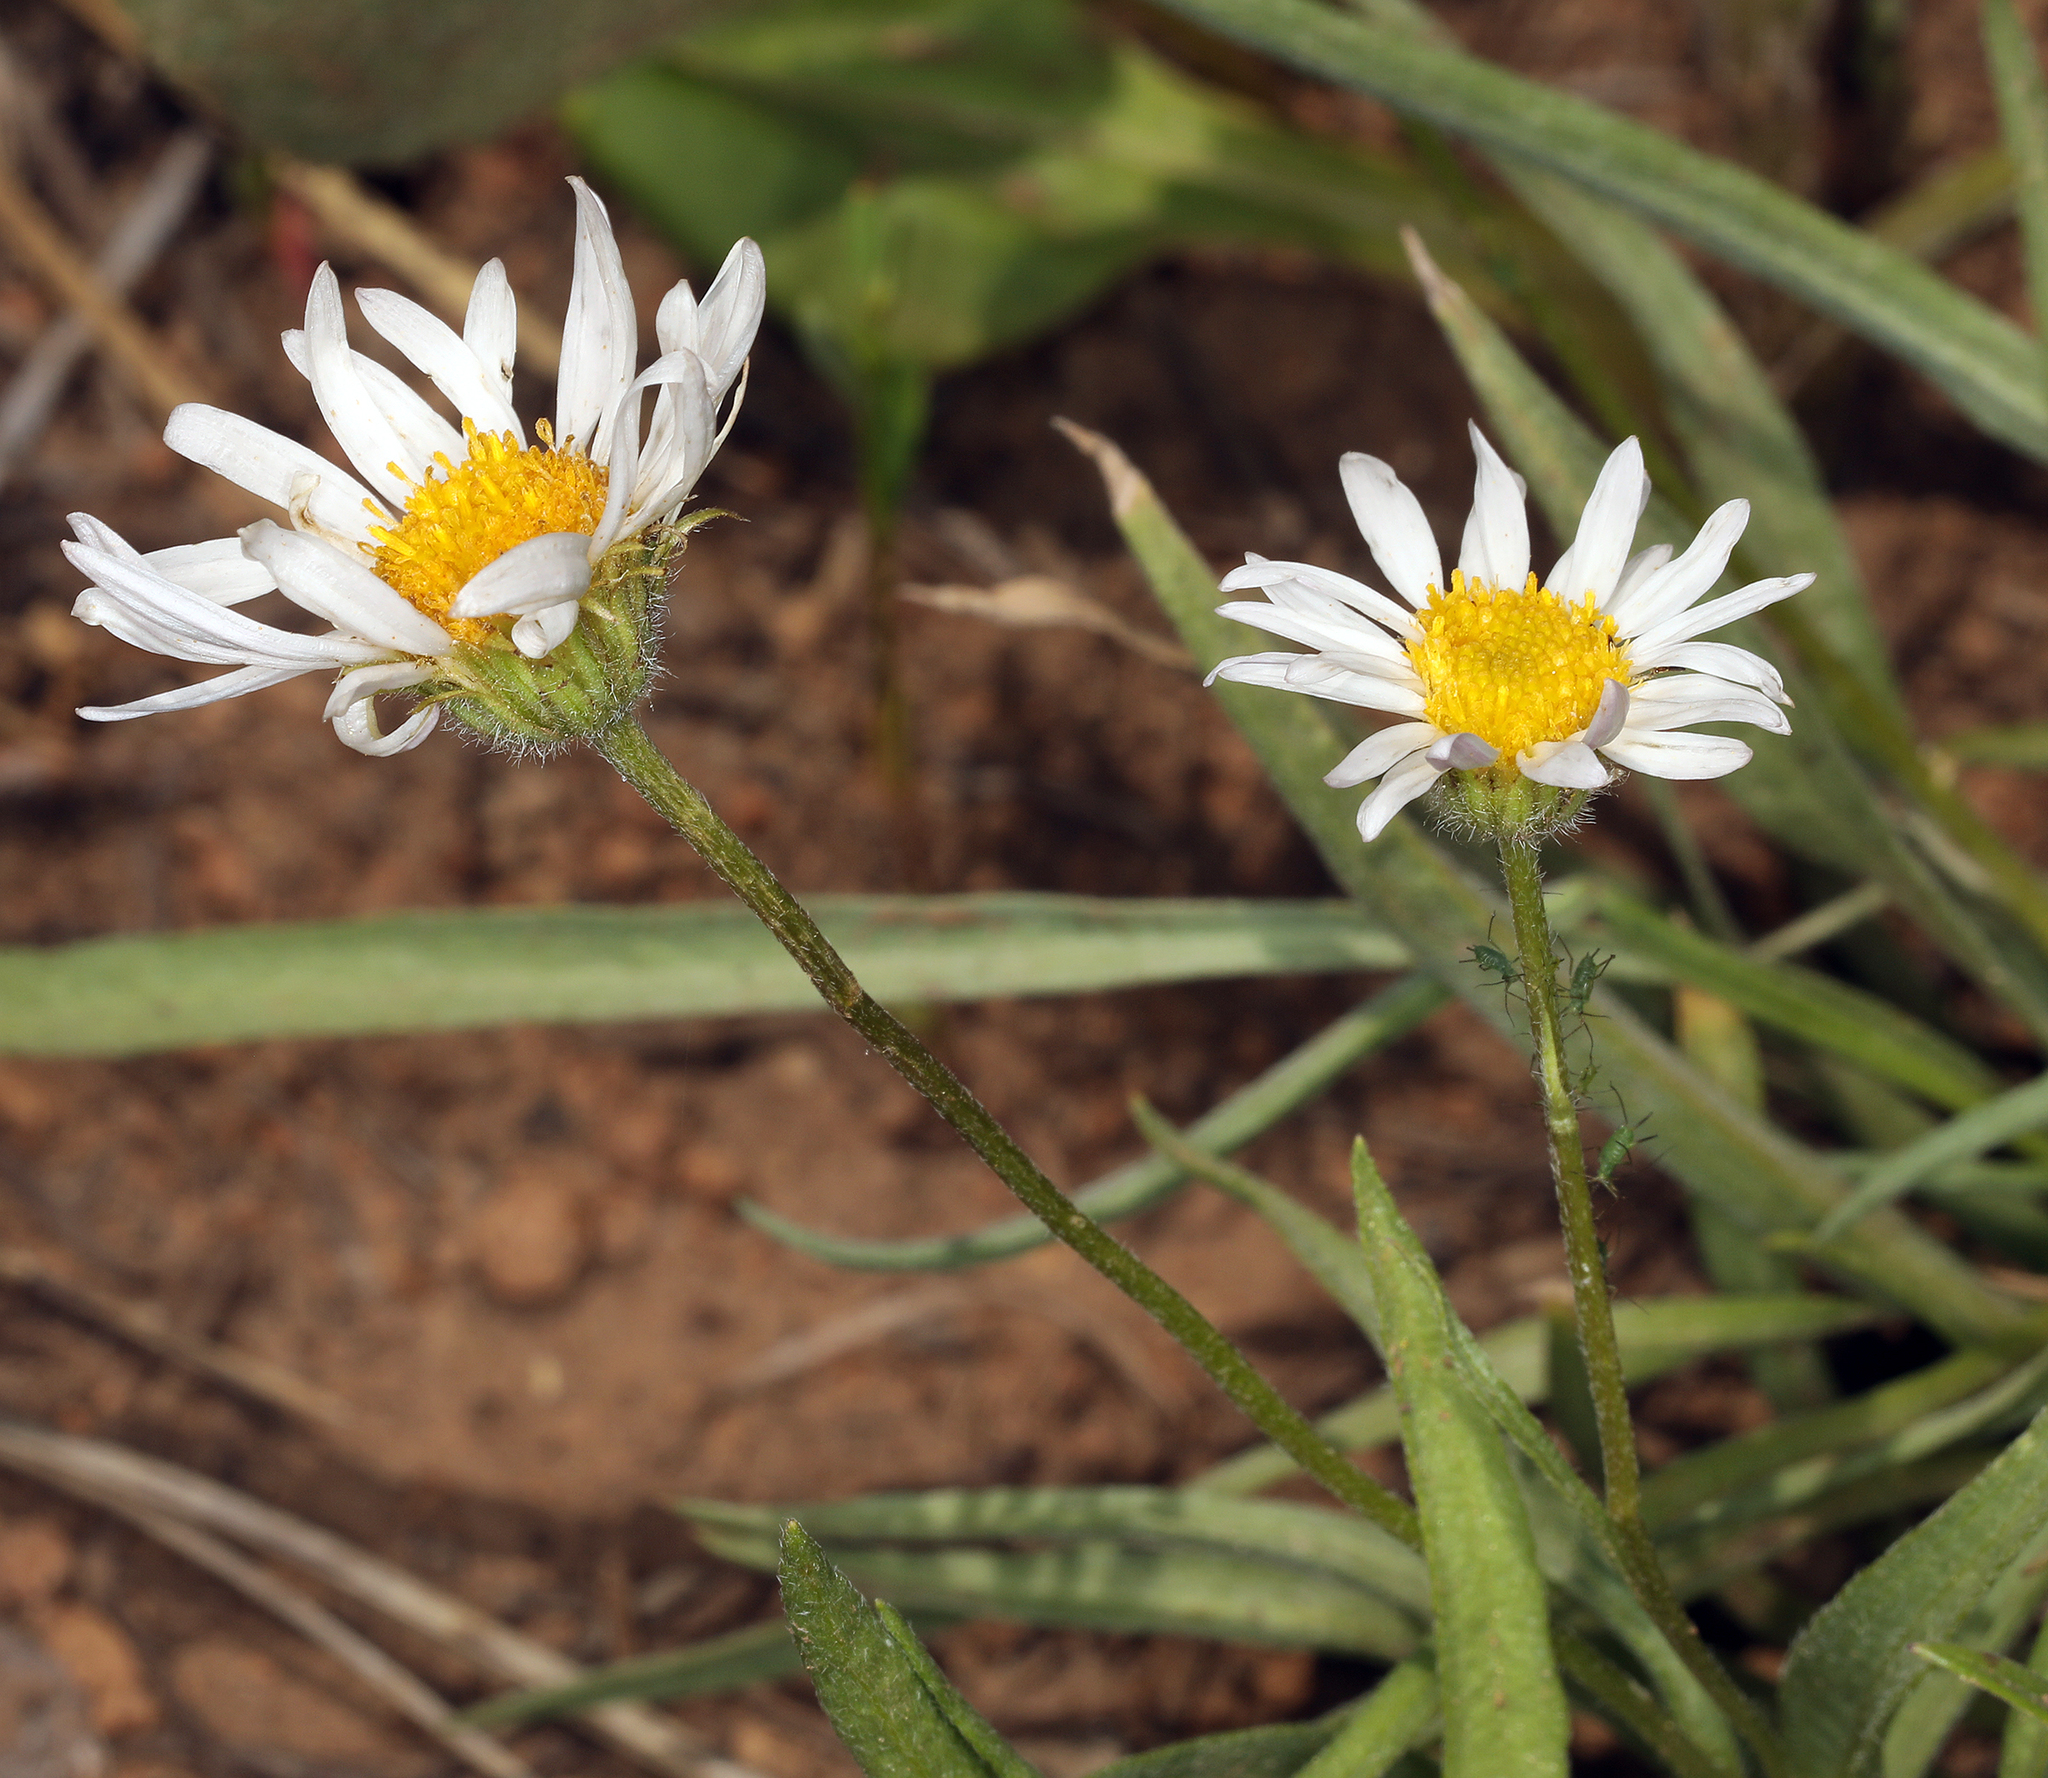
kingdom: Plantae
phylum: Tracheophyta
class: Magnoliopsida
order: Asterales
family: Asteraceae
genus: Erigeron
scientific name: Erigeron eatonii
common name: Eaton's fleabane
